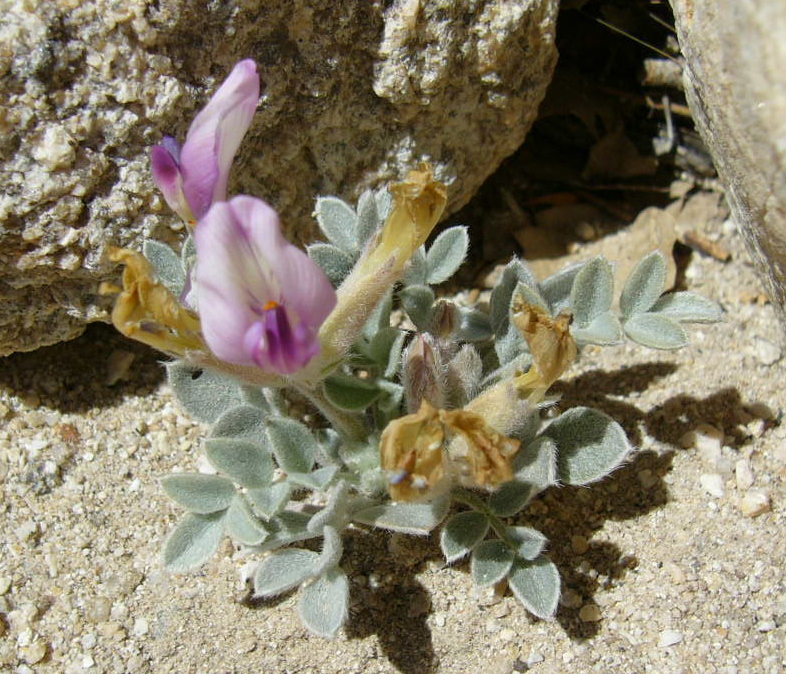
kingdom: Plantae
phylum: Tracheophyta
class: Magnoliopsida
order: Fabales
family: Fabaceae
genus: Astragalus
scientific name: Astragalus newberryi
